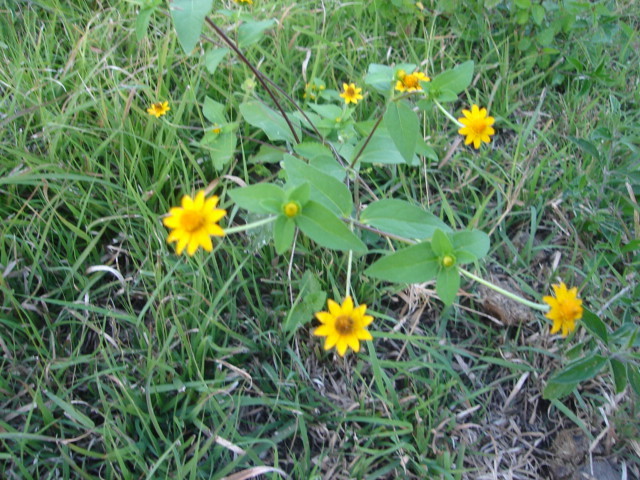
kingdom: Plantae
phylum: Tracheophyta
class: Magnoliopsida
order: Asterales
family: Asteraceae
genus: Melampodium
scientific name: Melampodium divaricatum
